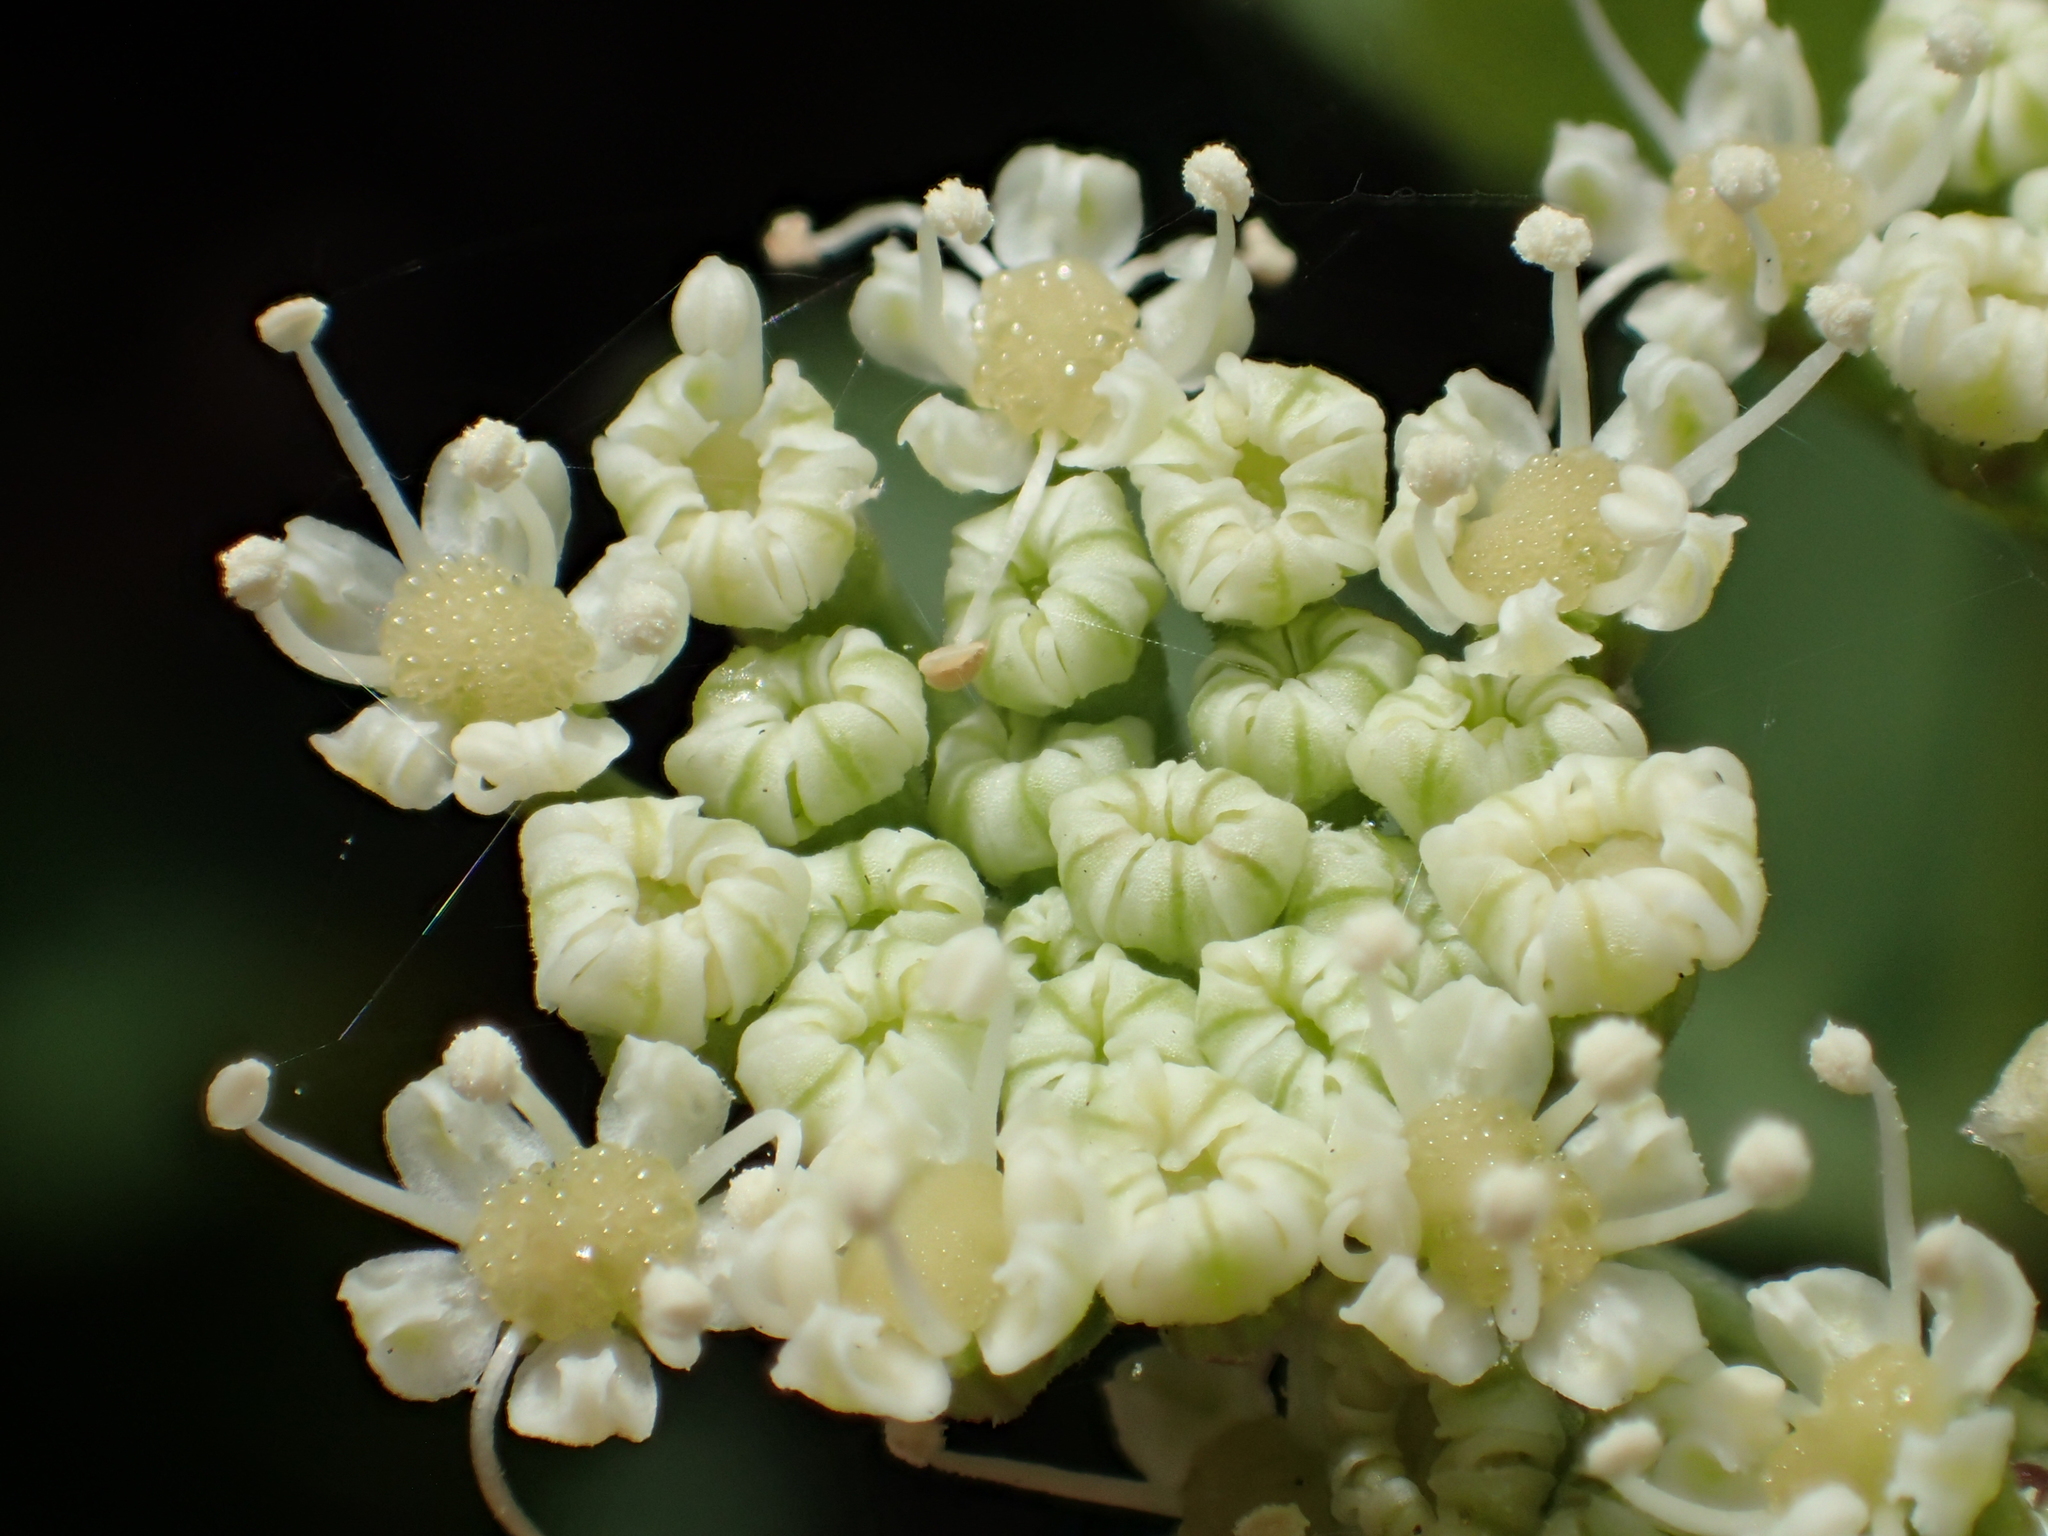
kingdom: Plantae
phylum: Tracheophyta
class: Magnoliopsida
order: Apiales
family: Apiaceae
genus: Peucedanum
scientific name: Peucedanum japonicum
